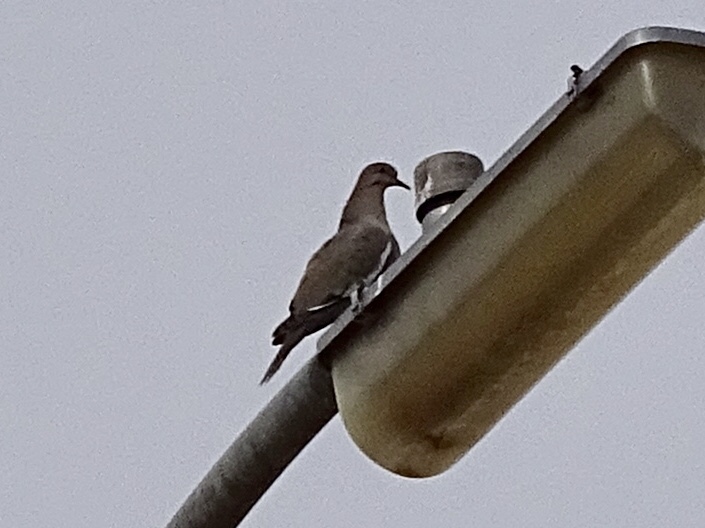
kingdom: Animalia
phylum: Chordata
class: Aves
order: Columbiformes
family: Columbidae
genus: Zenaida
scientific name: Zenaida asiatica
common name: White-winged dove
